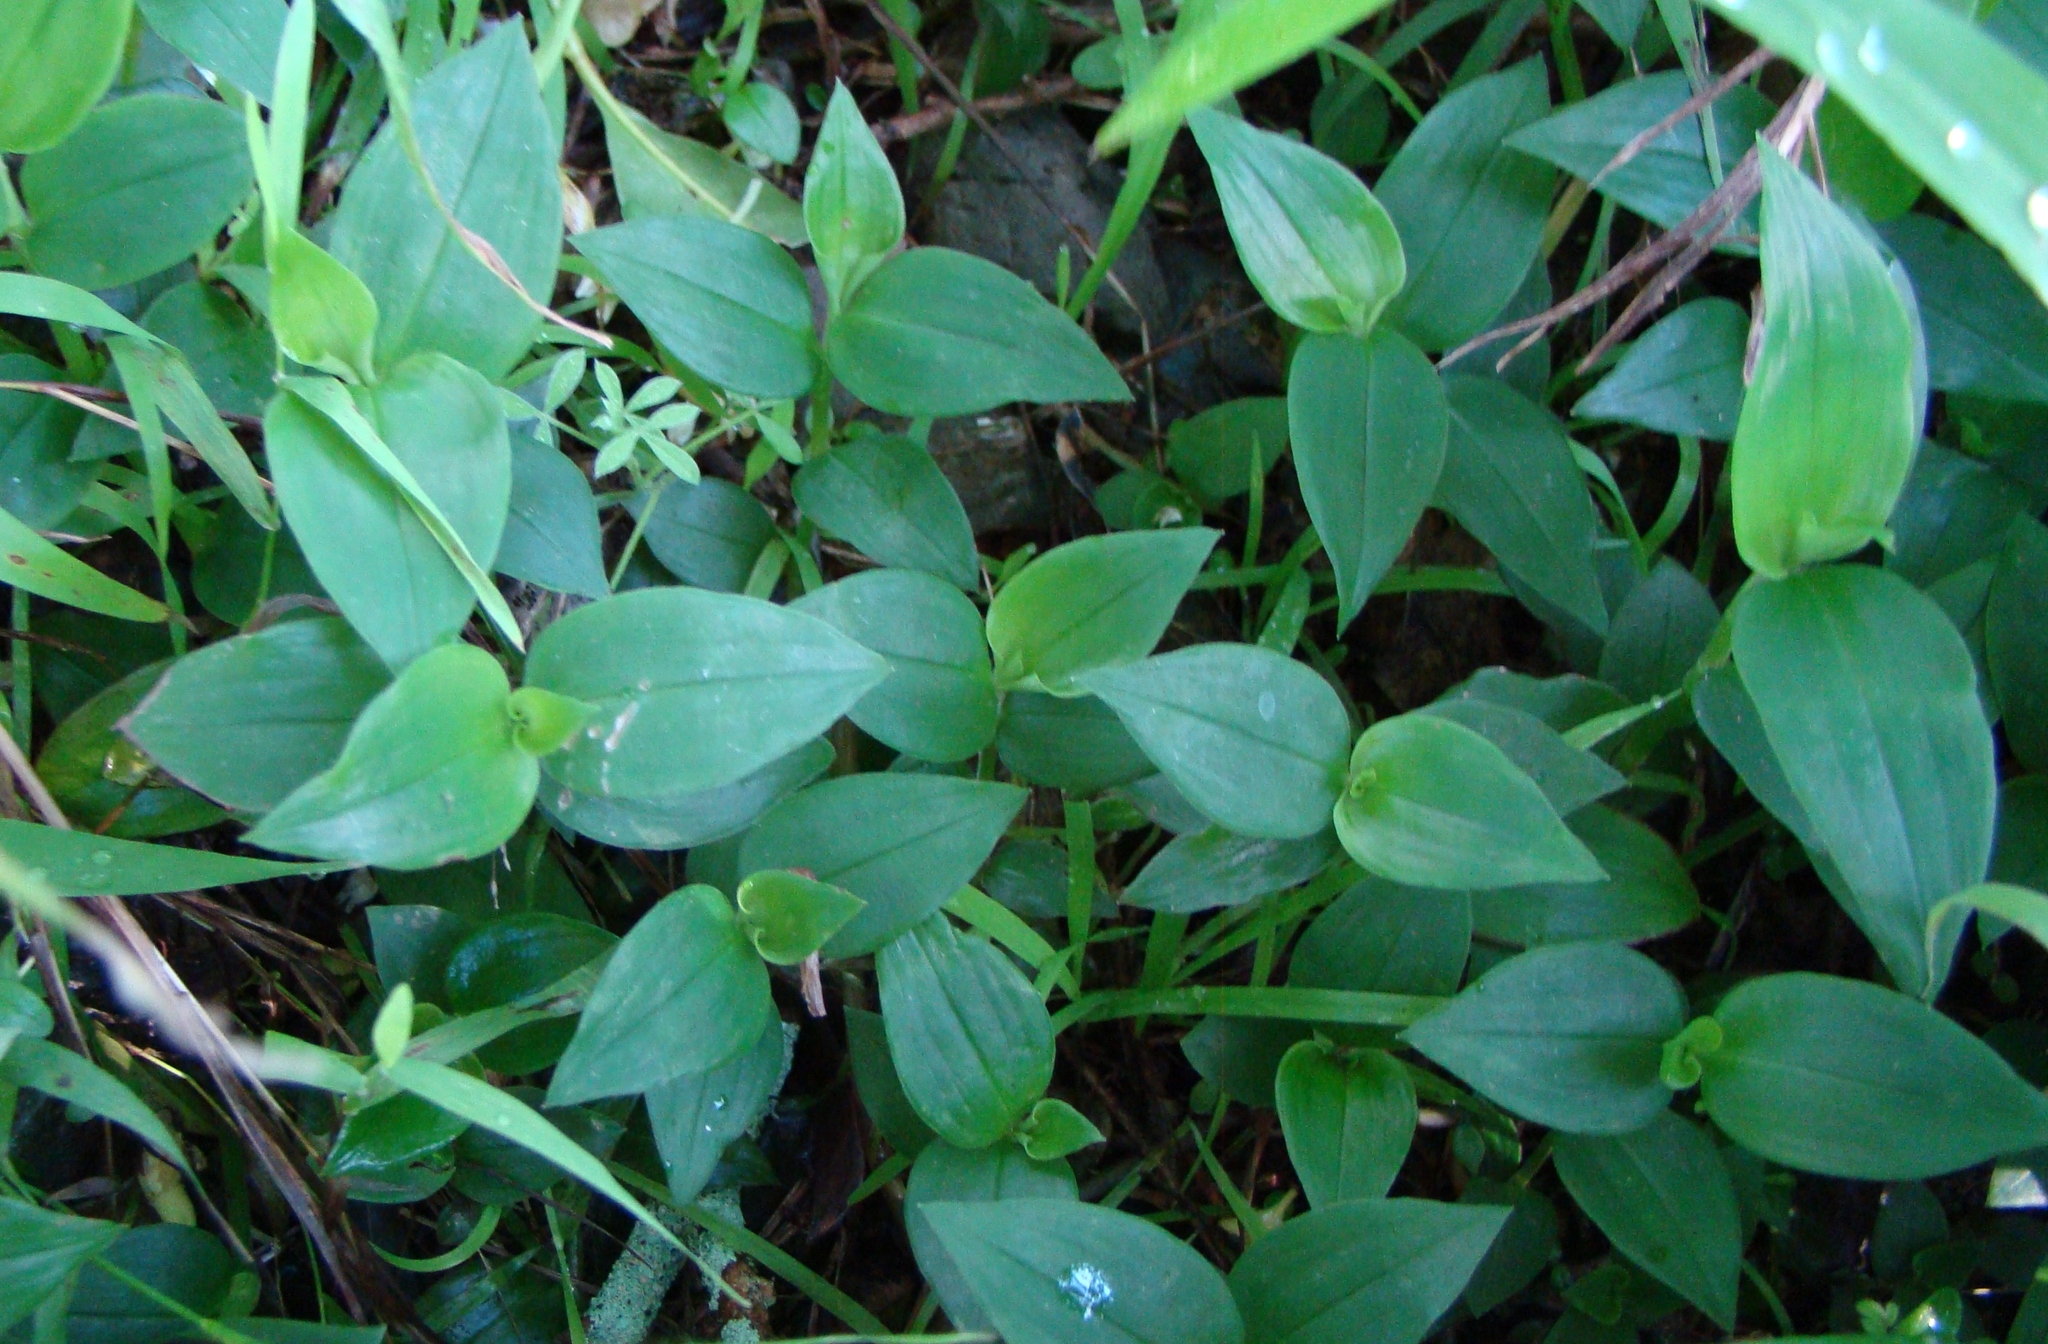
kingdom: Plantae
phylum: Tracheophyta
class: Liliopsida
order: Commelinales
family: Commelinaceae
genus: Tradescantia
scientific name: Tradescantia fluminensis
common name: Wandering-jew
